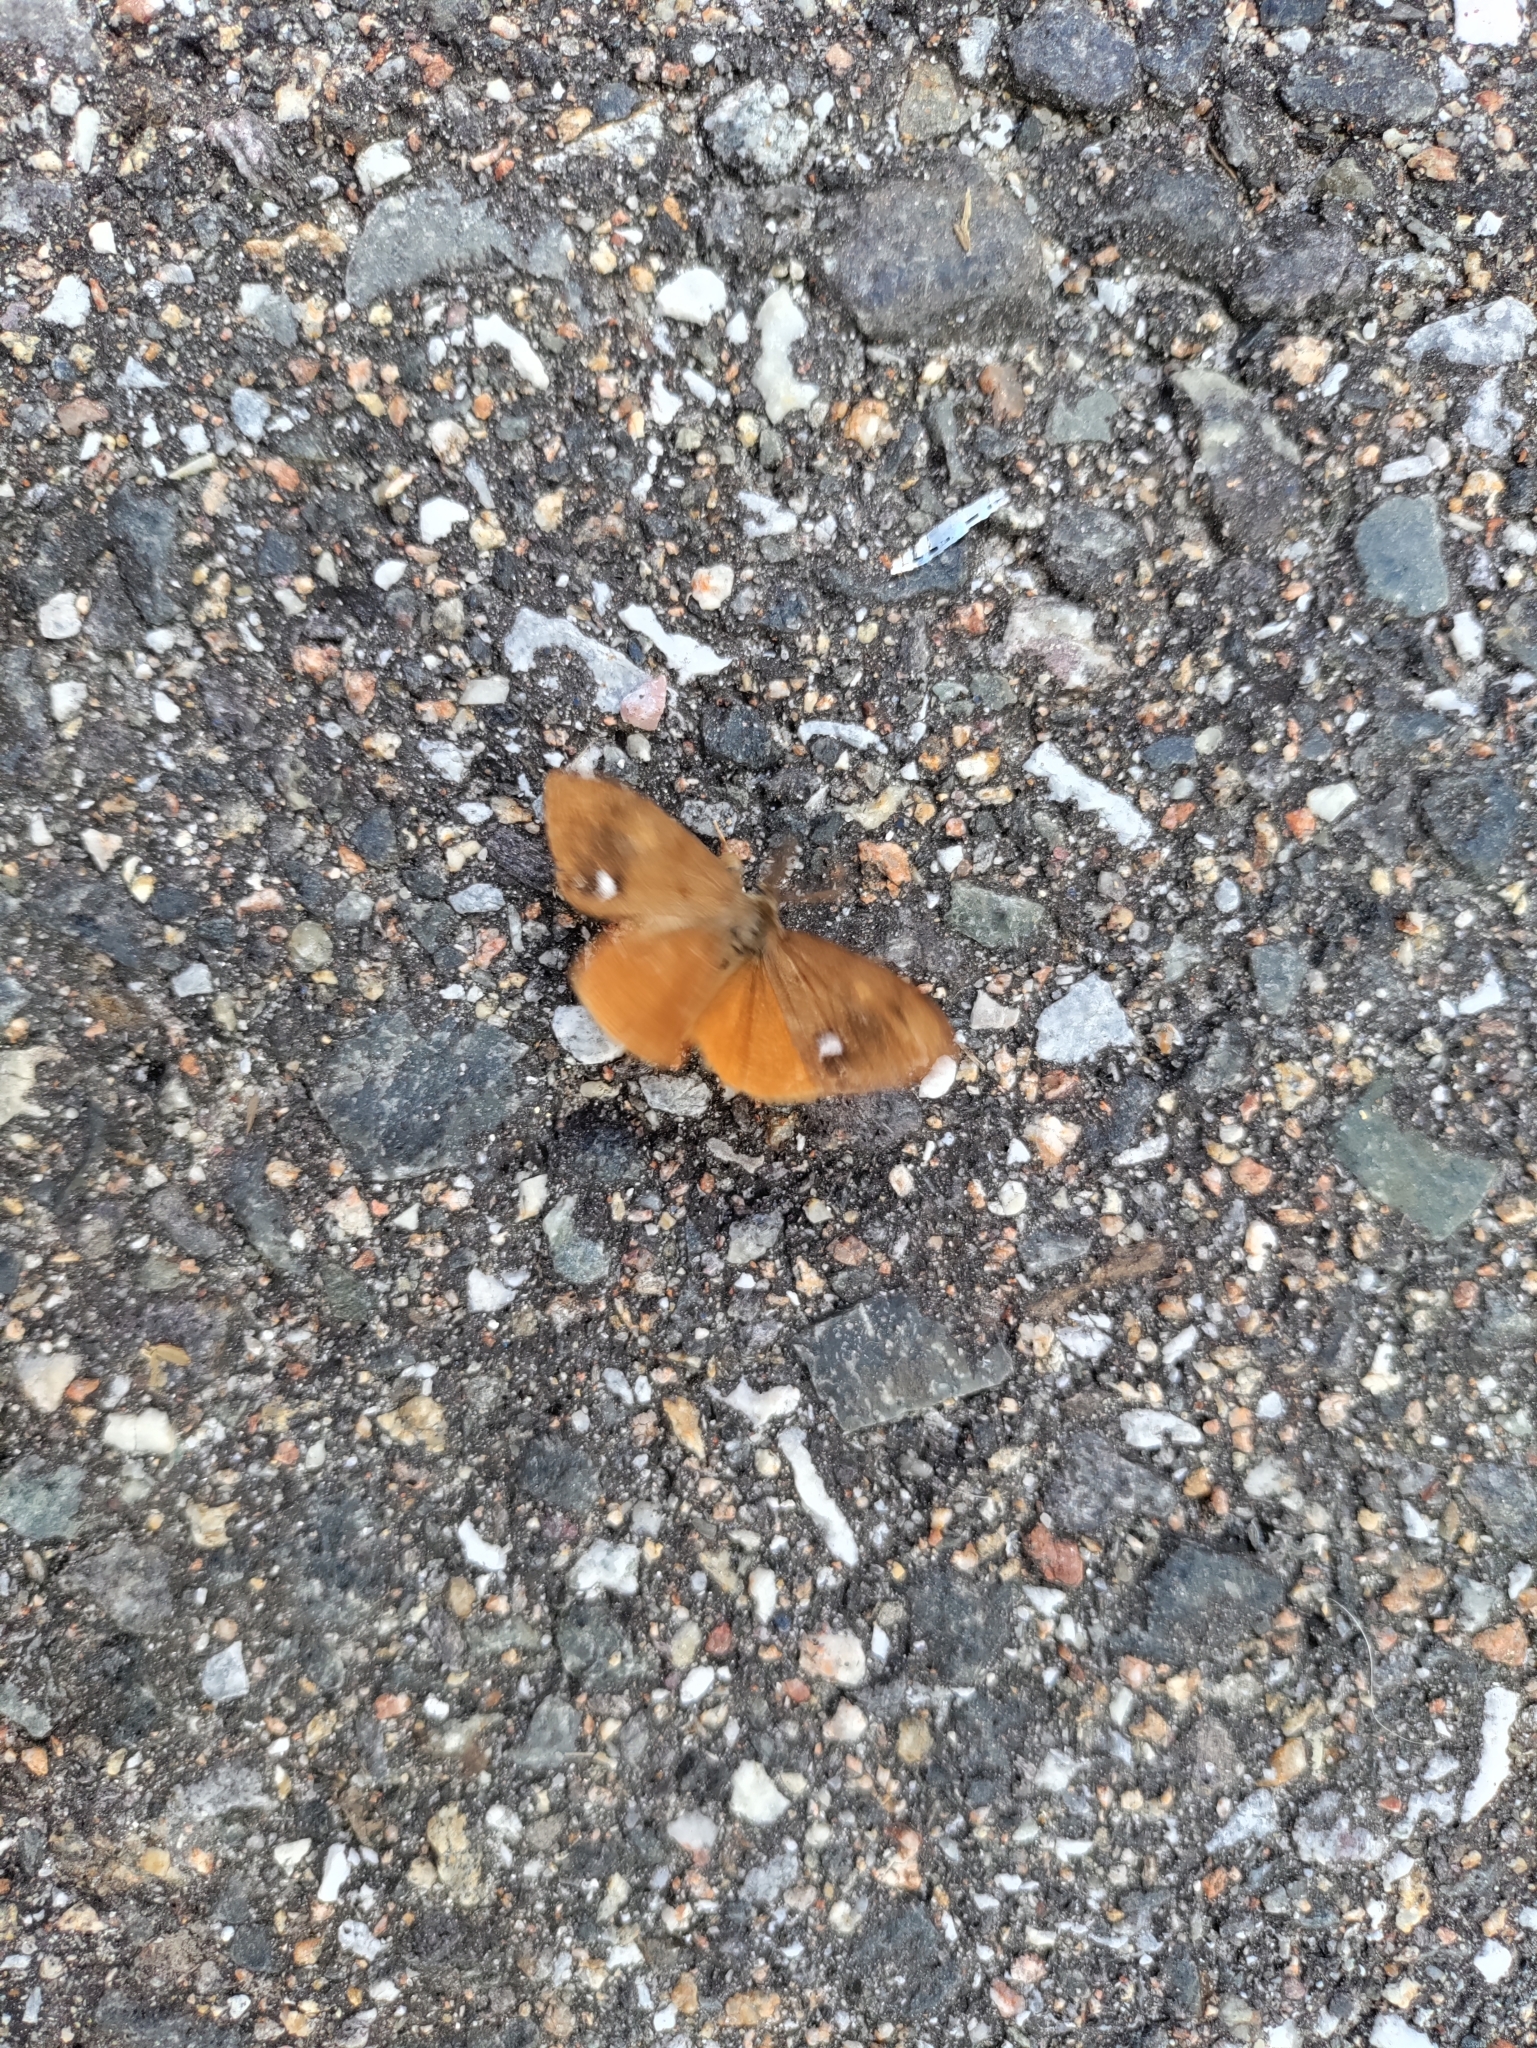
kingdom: Animalia
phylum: Arthropoda
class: Insecta
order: Lepidoptera
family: Erebidae
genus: Orgyia
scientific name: Orgyia antiqua
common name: Vapourer
